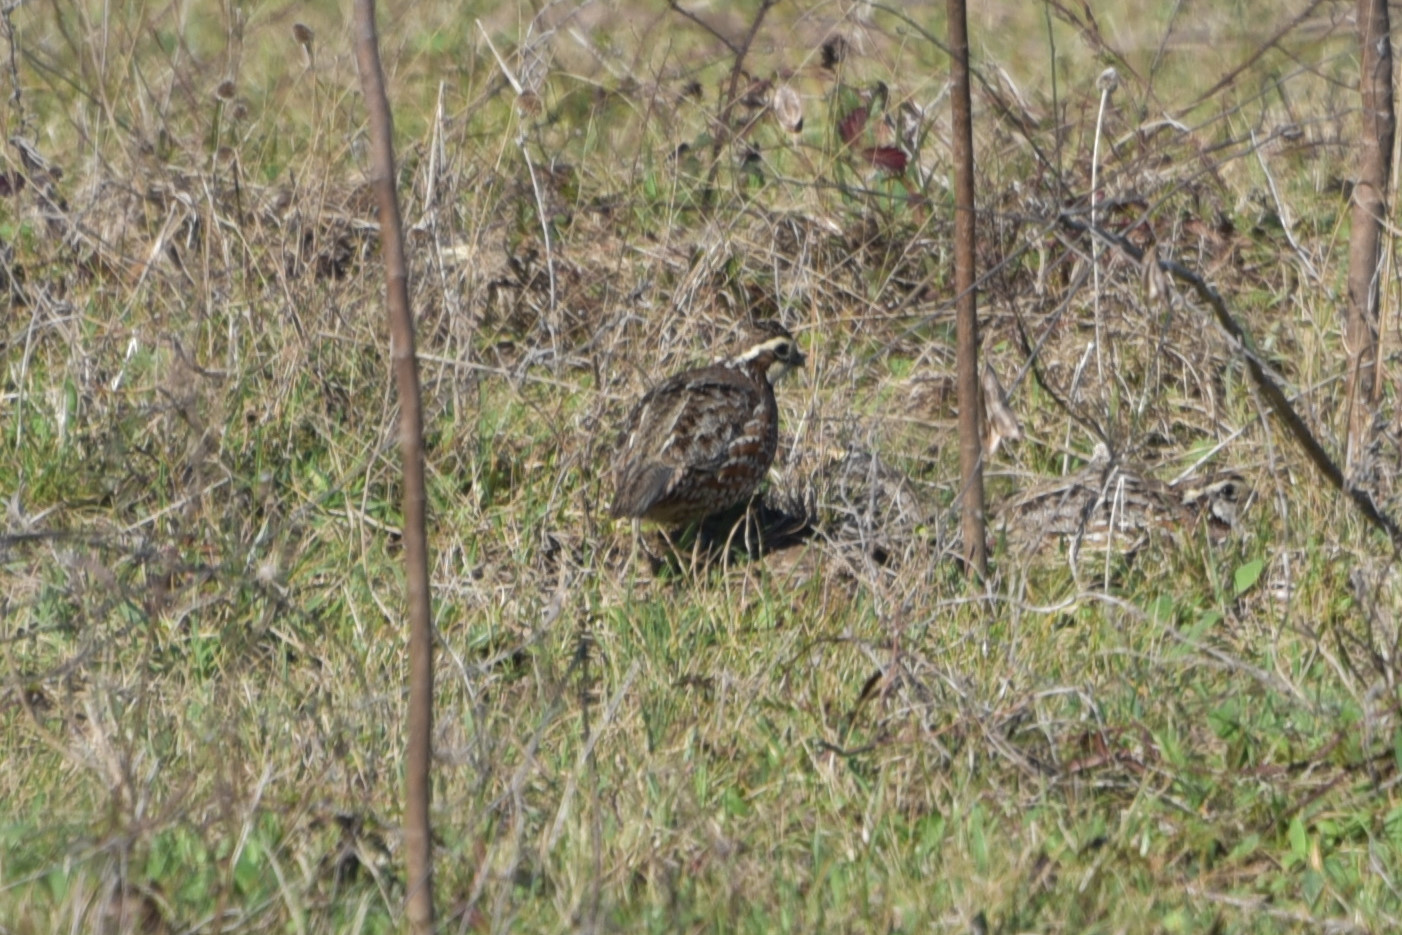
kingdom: Animalia
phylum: Chordata
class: Aves
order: Galliformes
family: Odontophoridae
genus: Colinus
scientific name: Colinus virginianus
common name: Northern bobwhite
